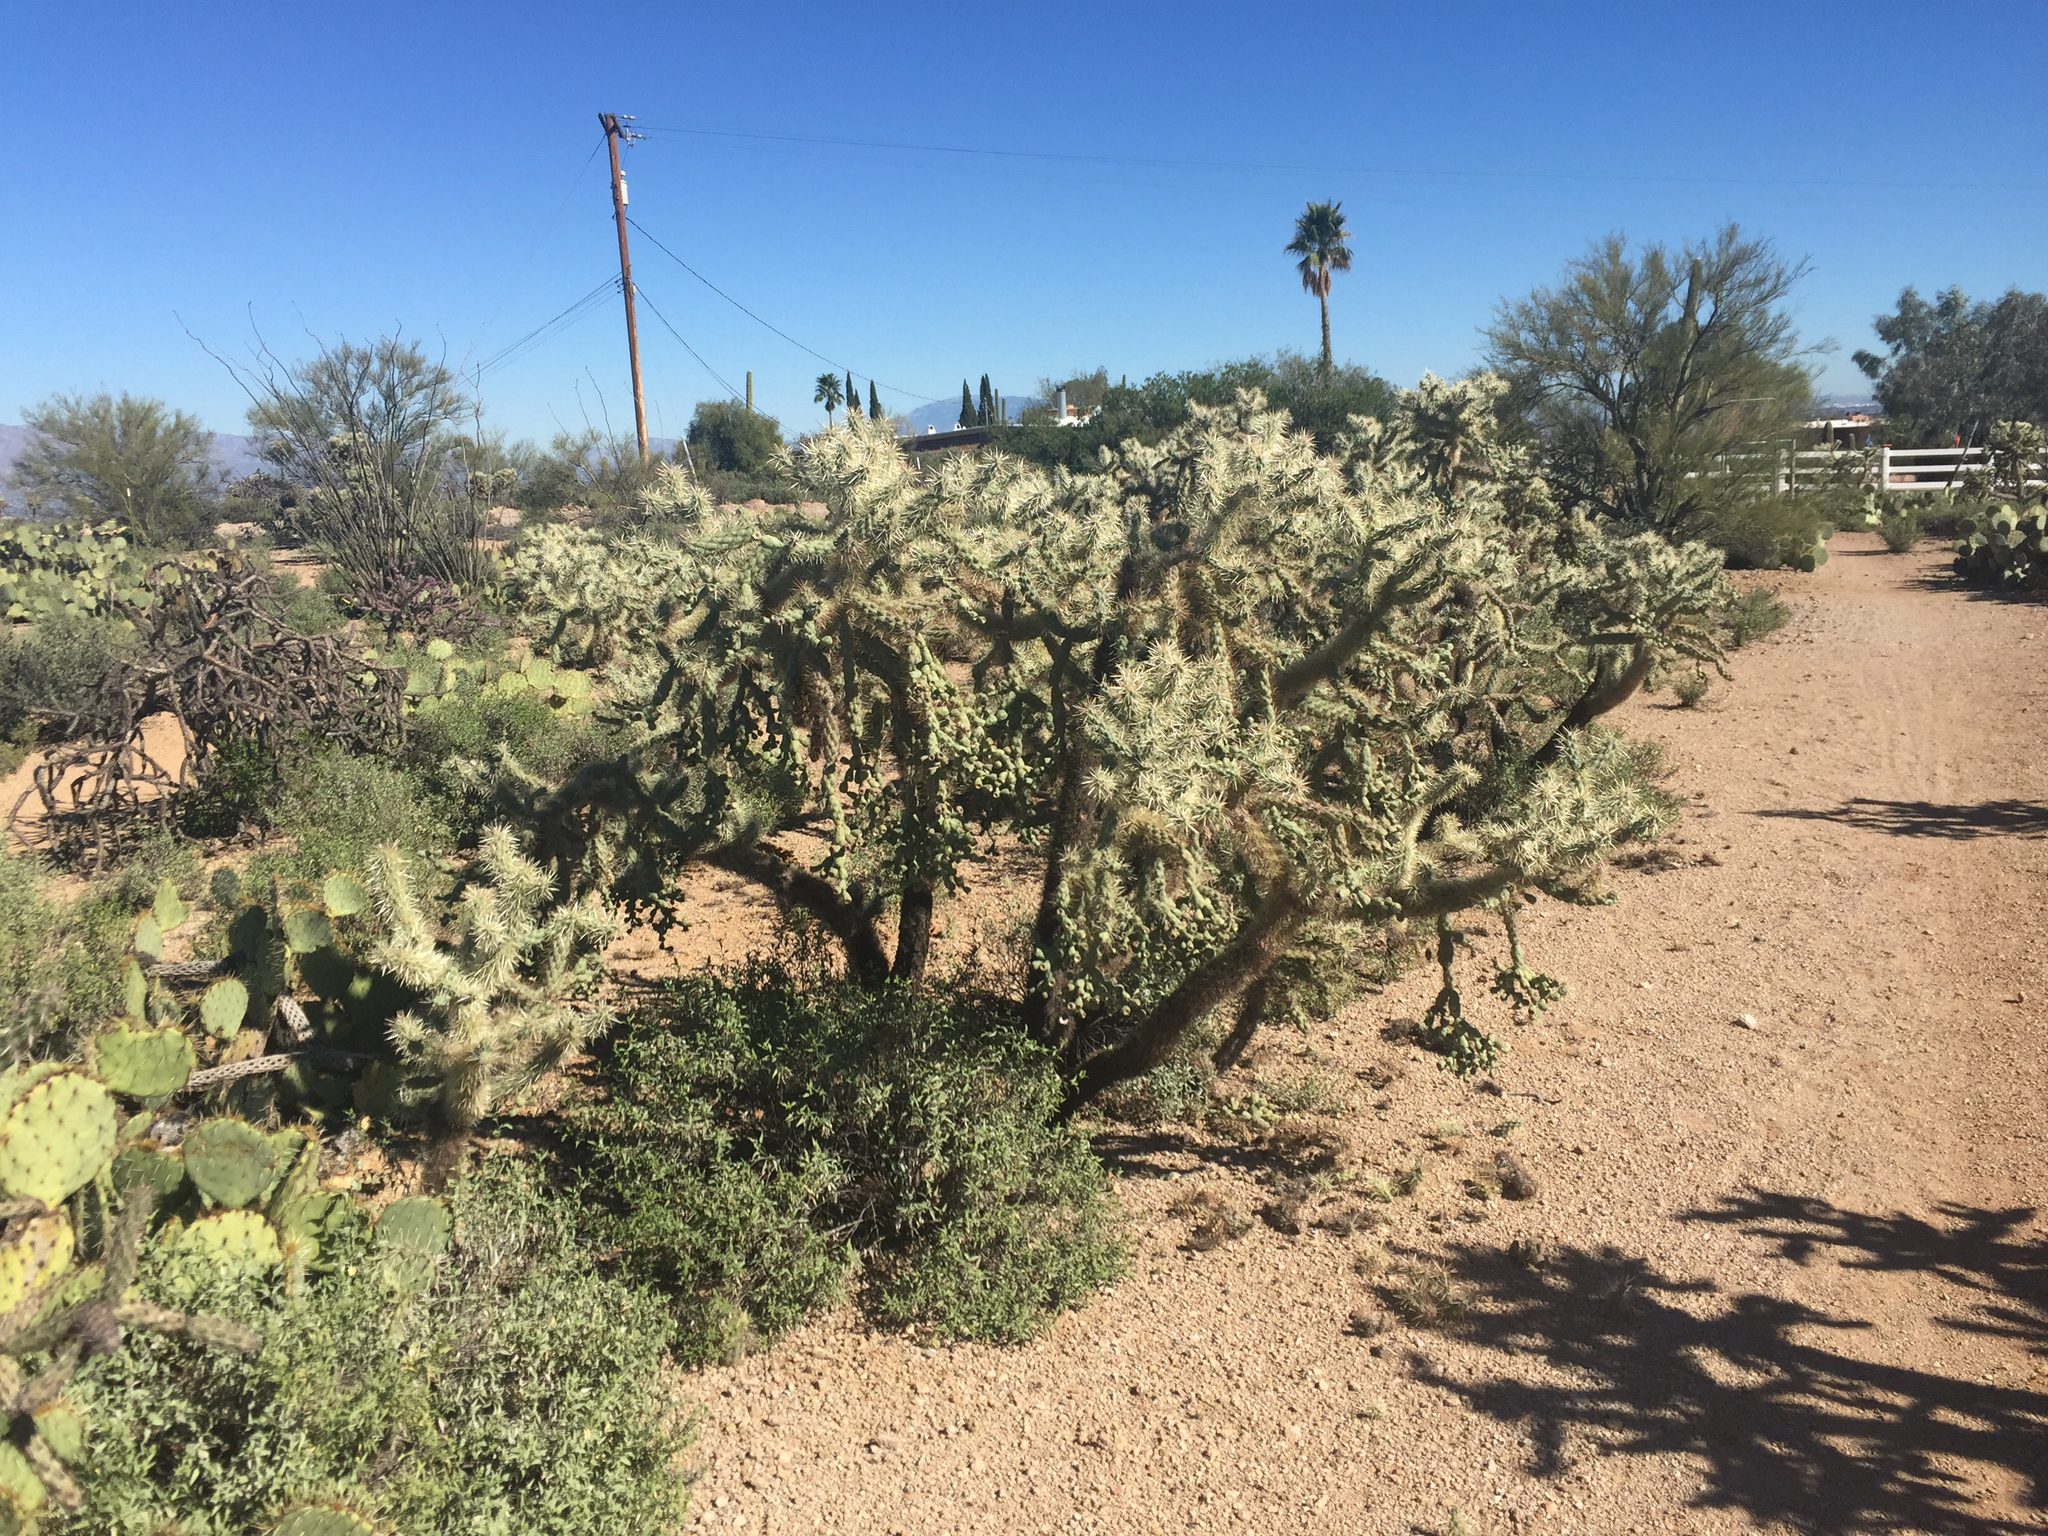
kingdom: Plantae
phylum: Tracheophyta
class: Magnoliopsida
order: Caryophyllales
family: Cactaceae
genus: Cylindropuntia
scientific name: Cylindropuntia fulgida
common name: Jumping cholla
